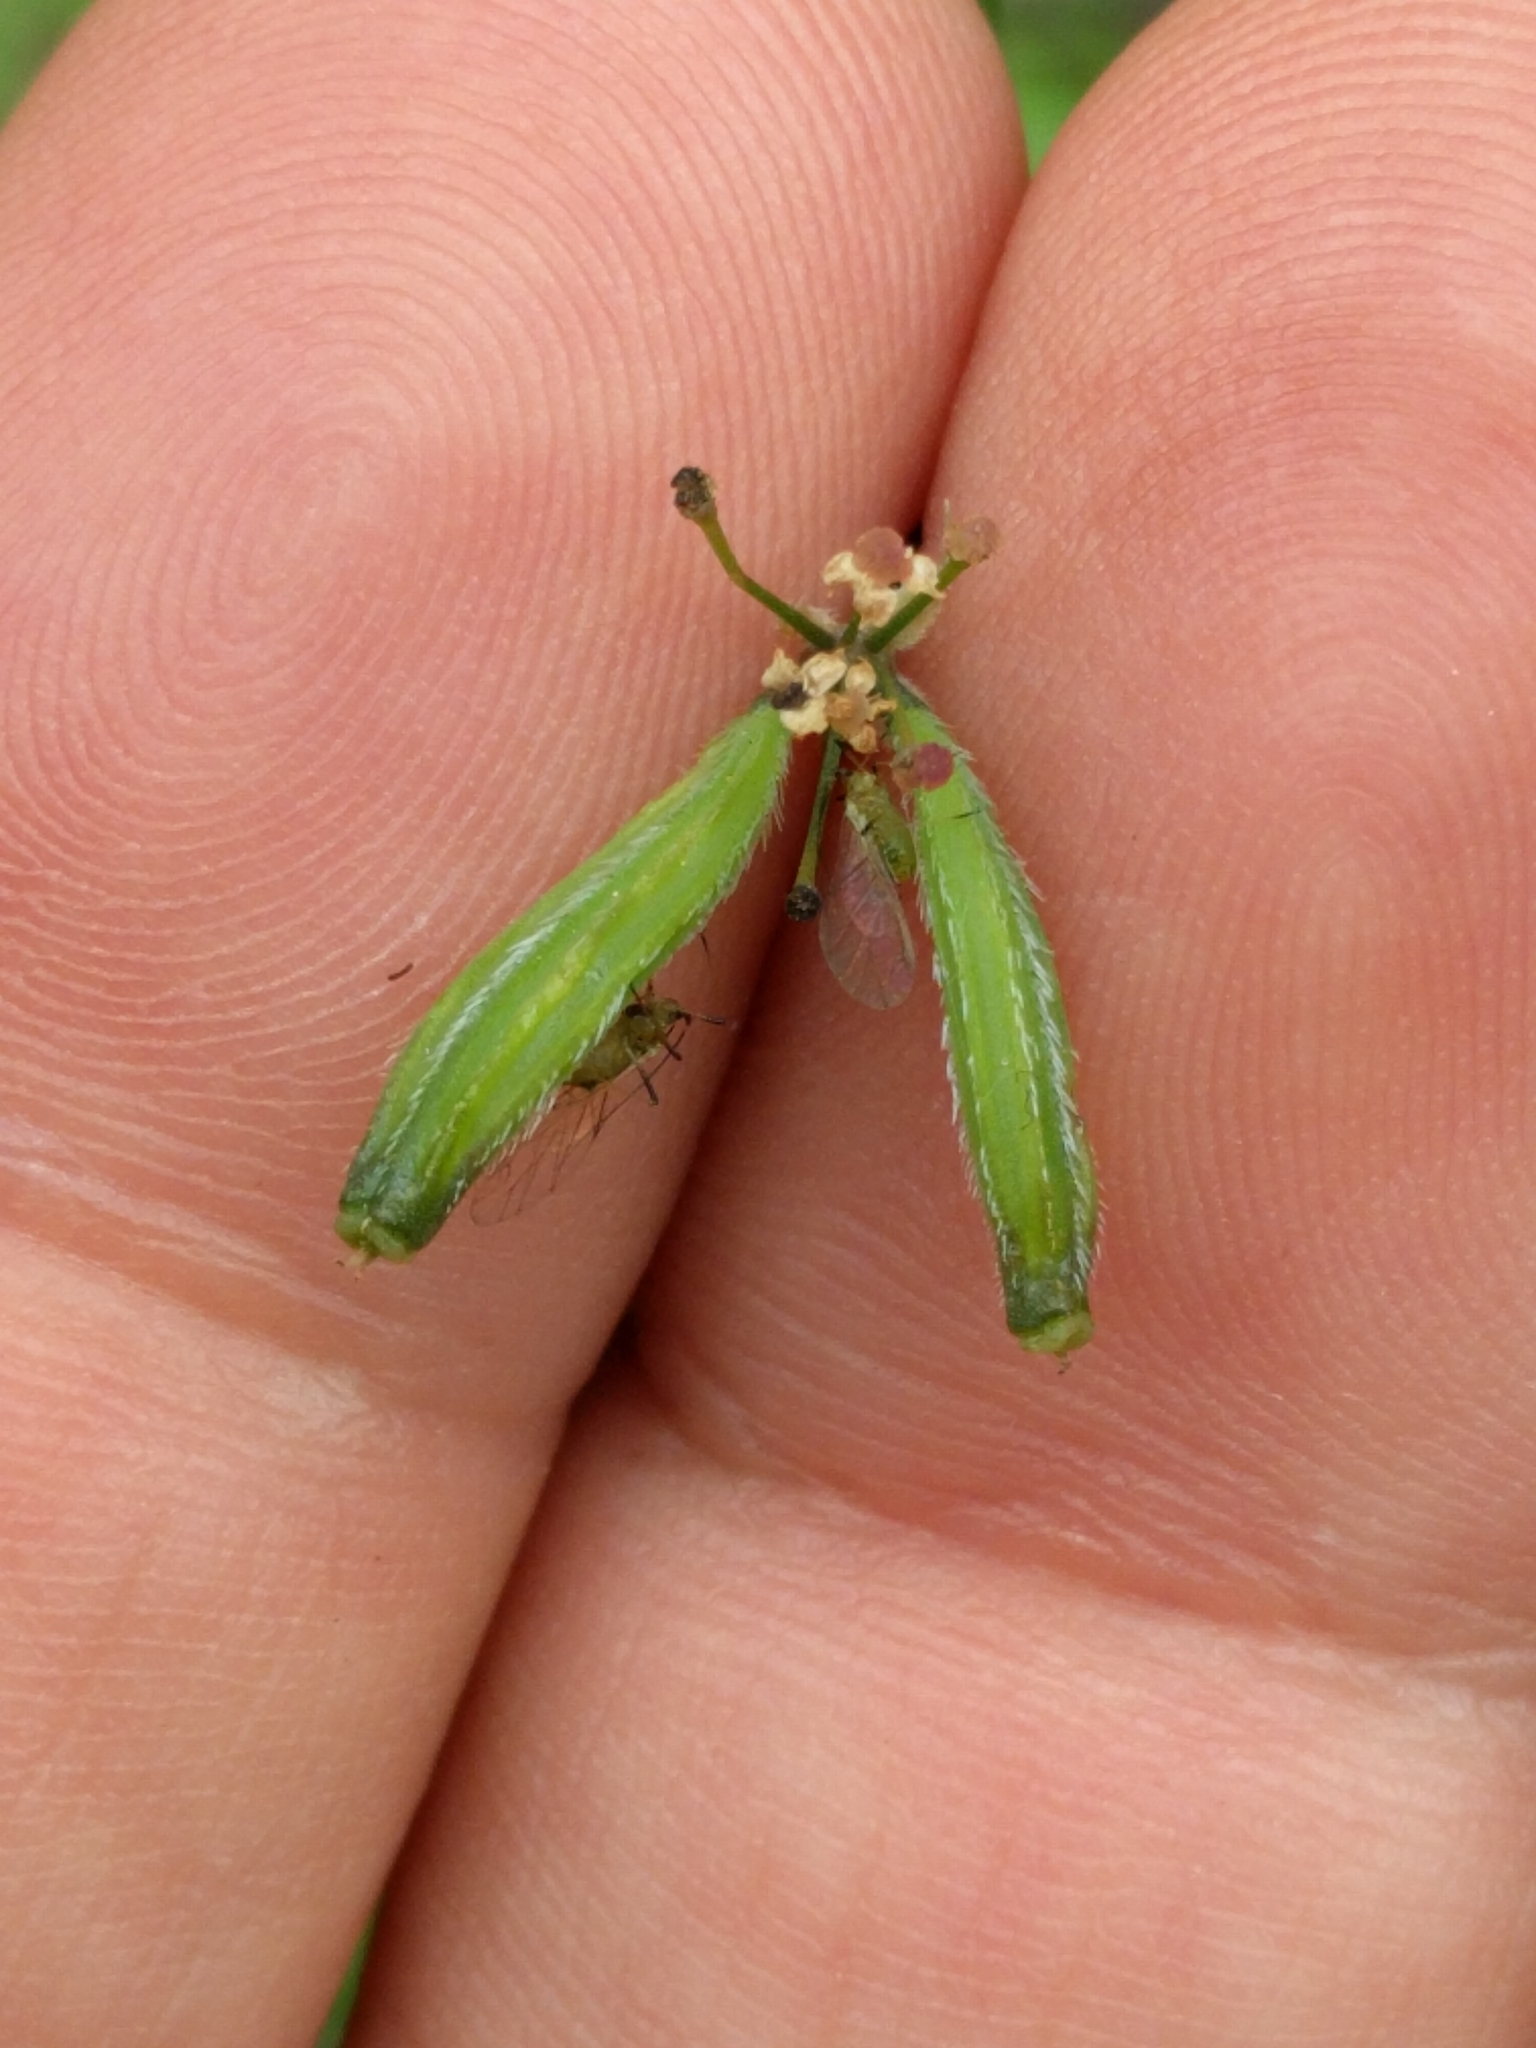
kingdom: Plantae
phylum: Tracheophyta
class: Magnoliopsida
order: Apiales
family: Apiaceae
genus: Osmorhiza
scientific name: Osmorhiza brachypoda
